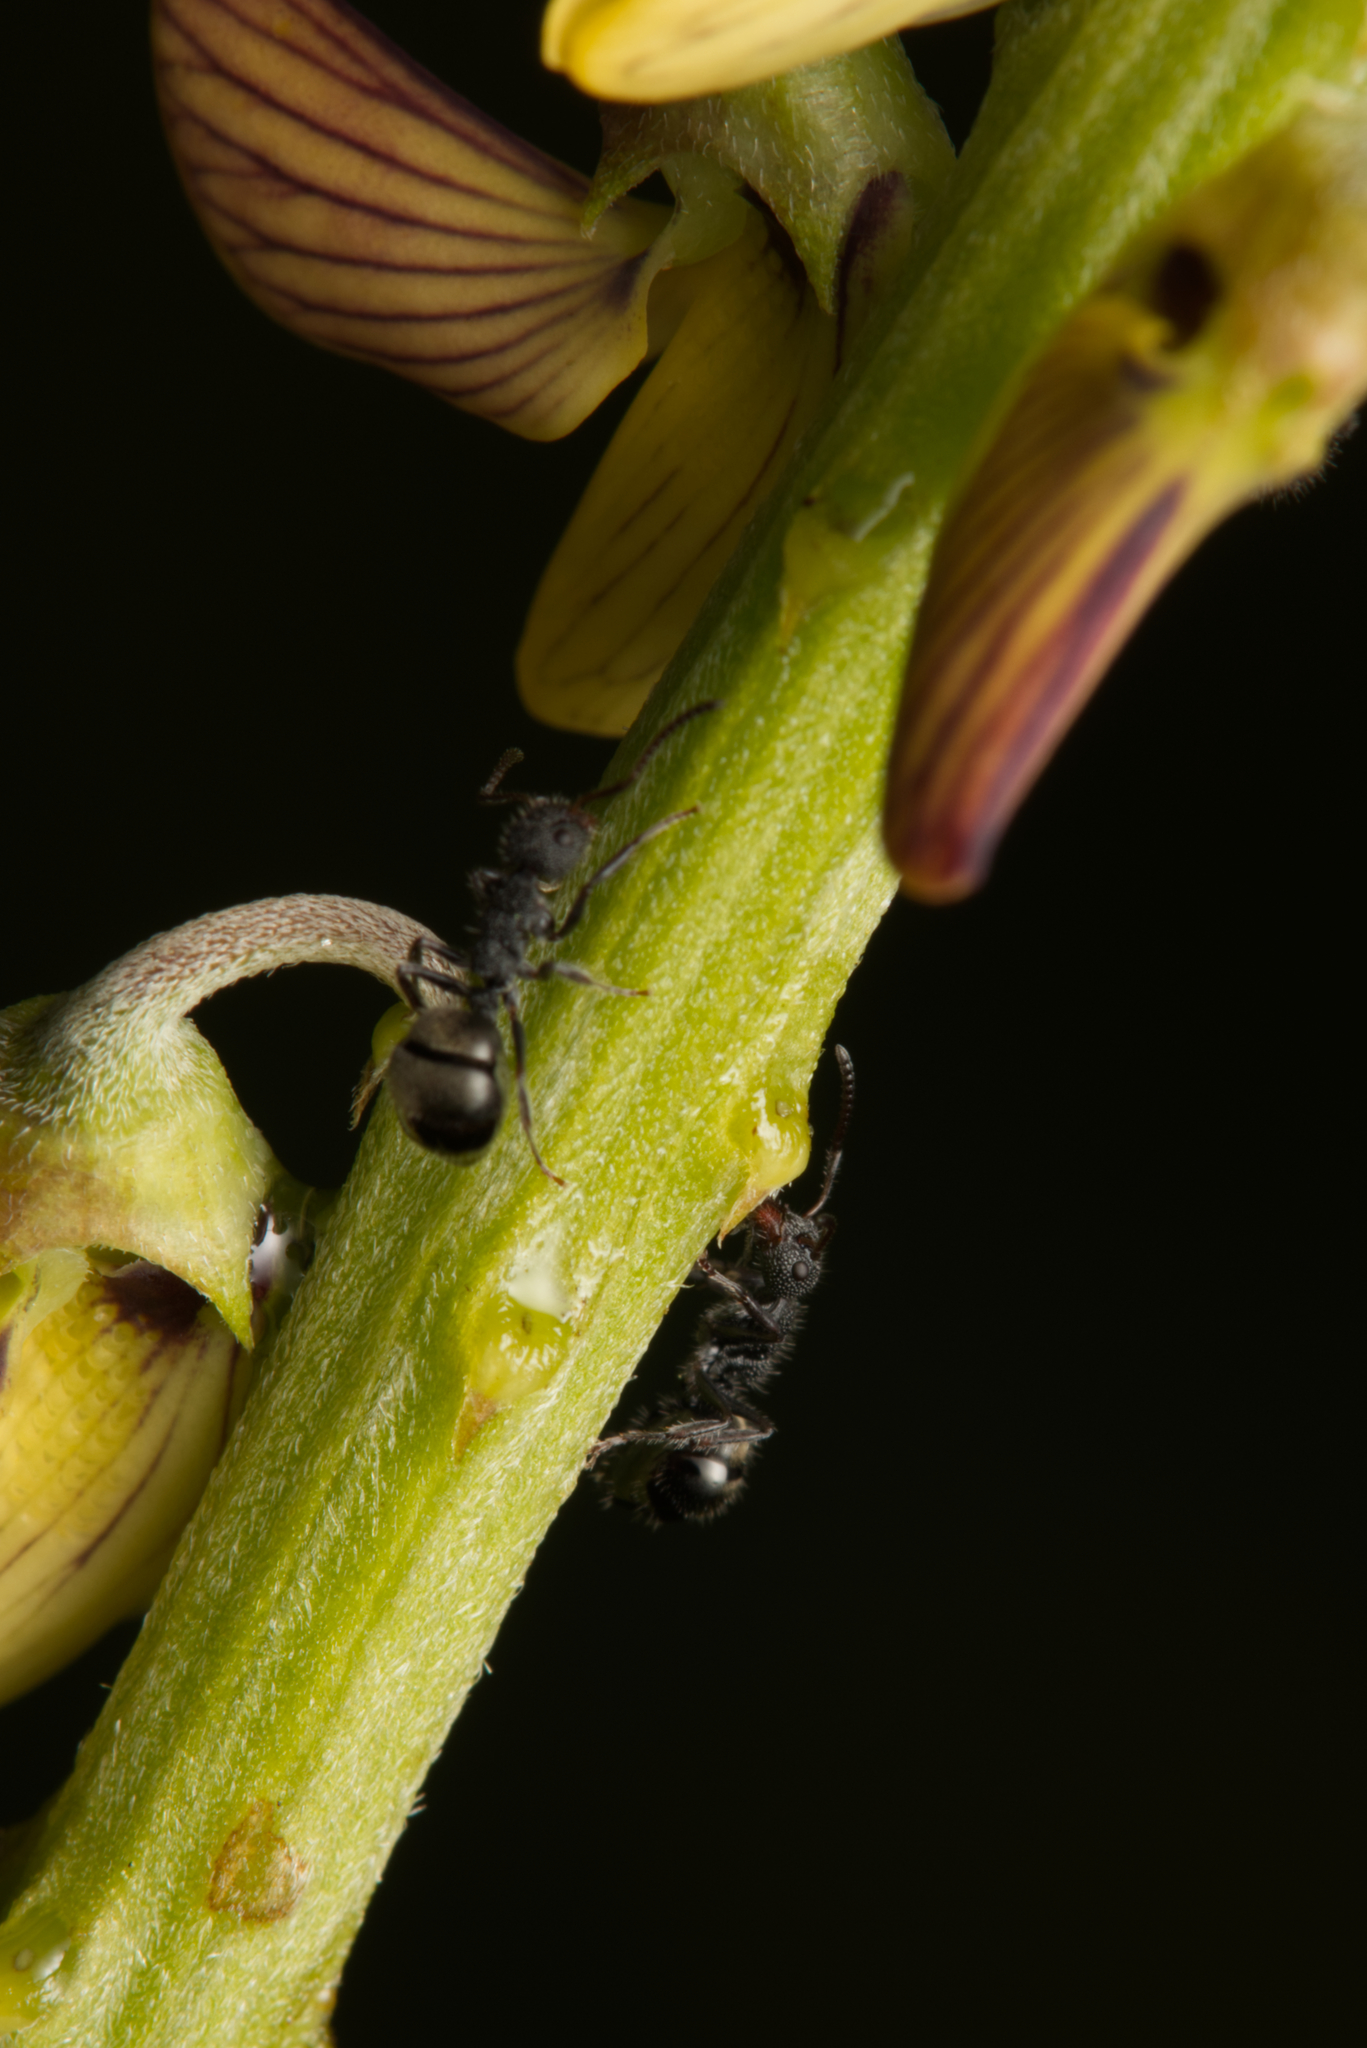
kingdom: Animalia
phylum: Arthropoda
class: Insecta
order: Hymenoptera
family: Formicidae
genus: Dolichoderus
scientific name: Dolichoderus scrobiculatus
